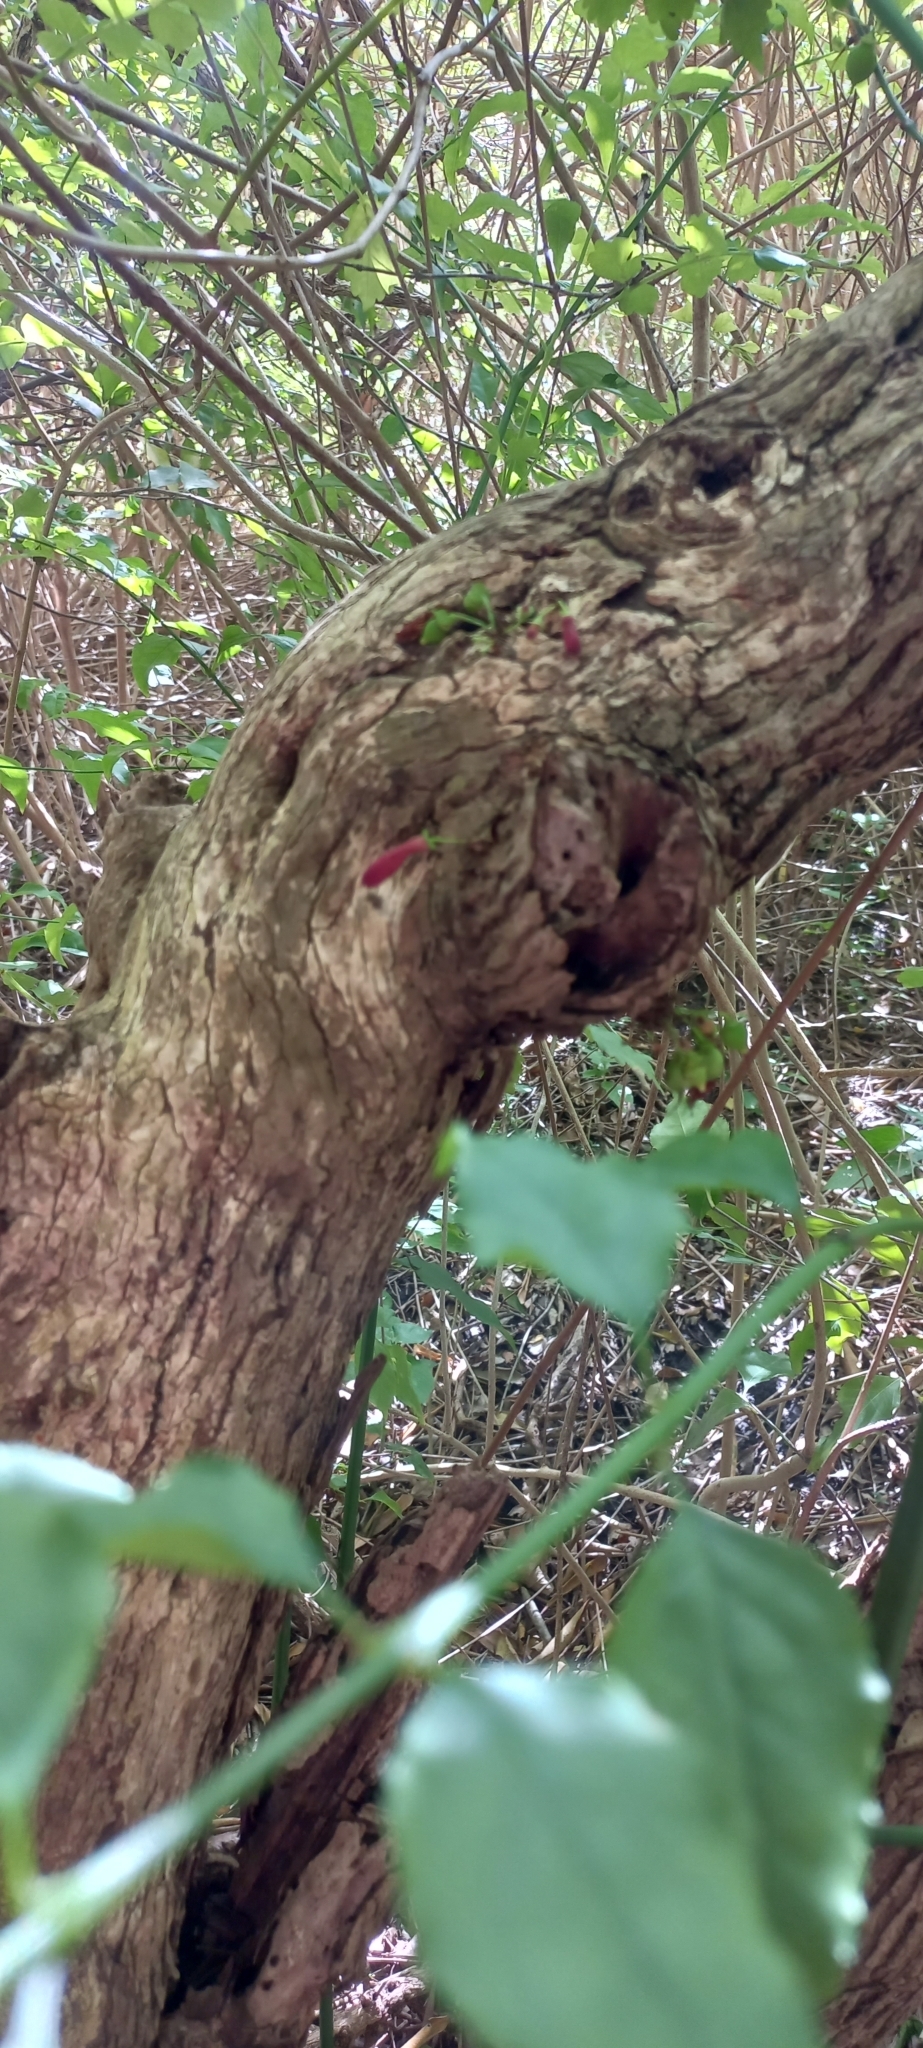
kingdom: Plantae
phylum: Tracheophyta
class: Magnoliopsida
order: Lamiales
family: Stilbaceae
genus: Halleria
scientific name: Halleria lucida
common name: Tree fuschia
